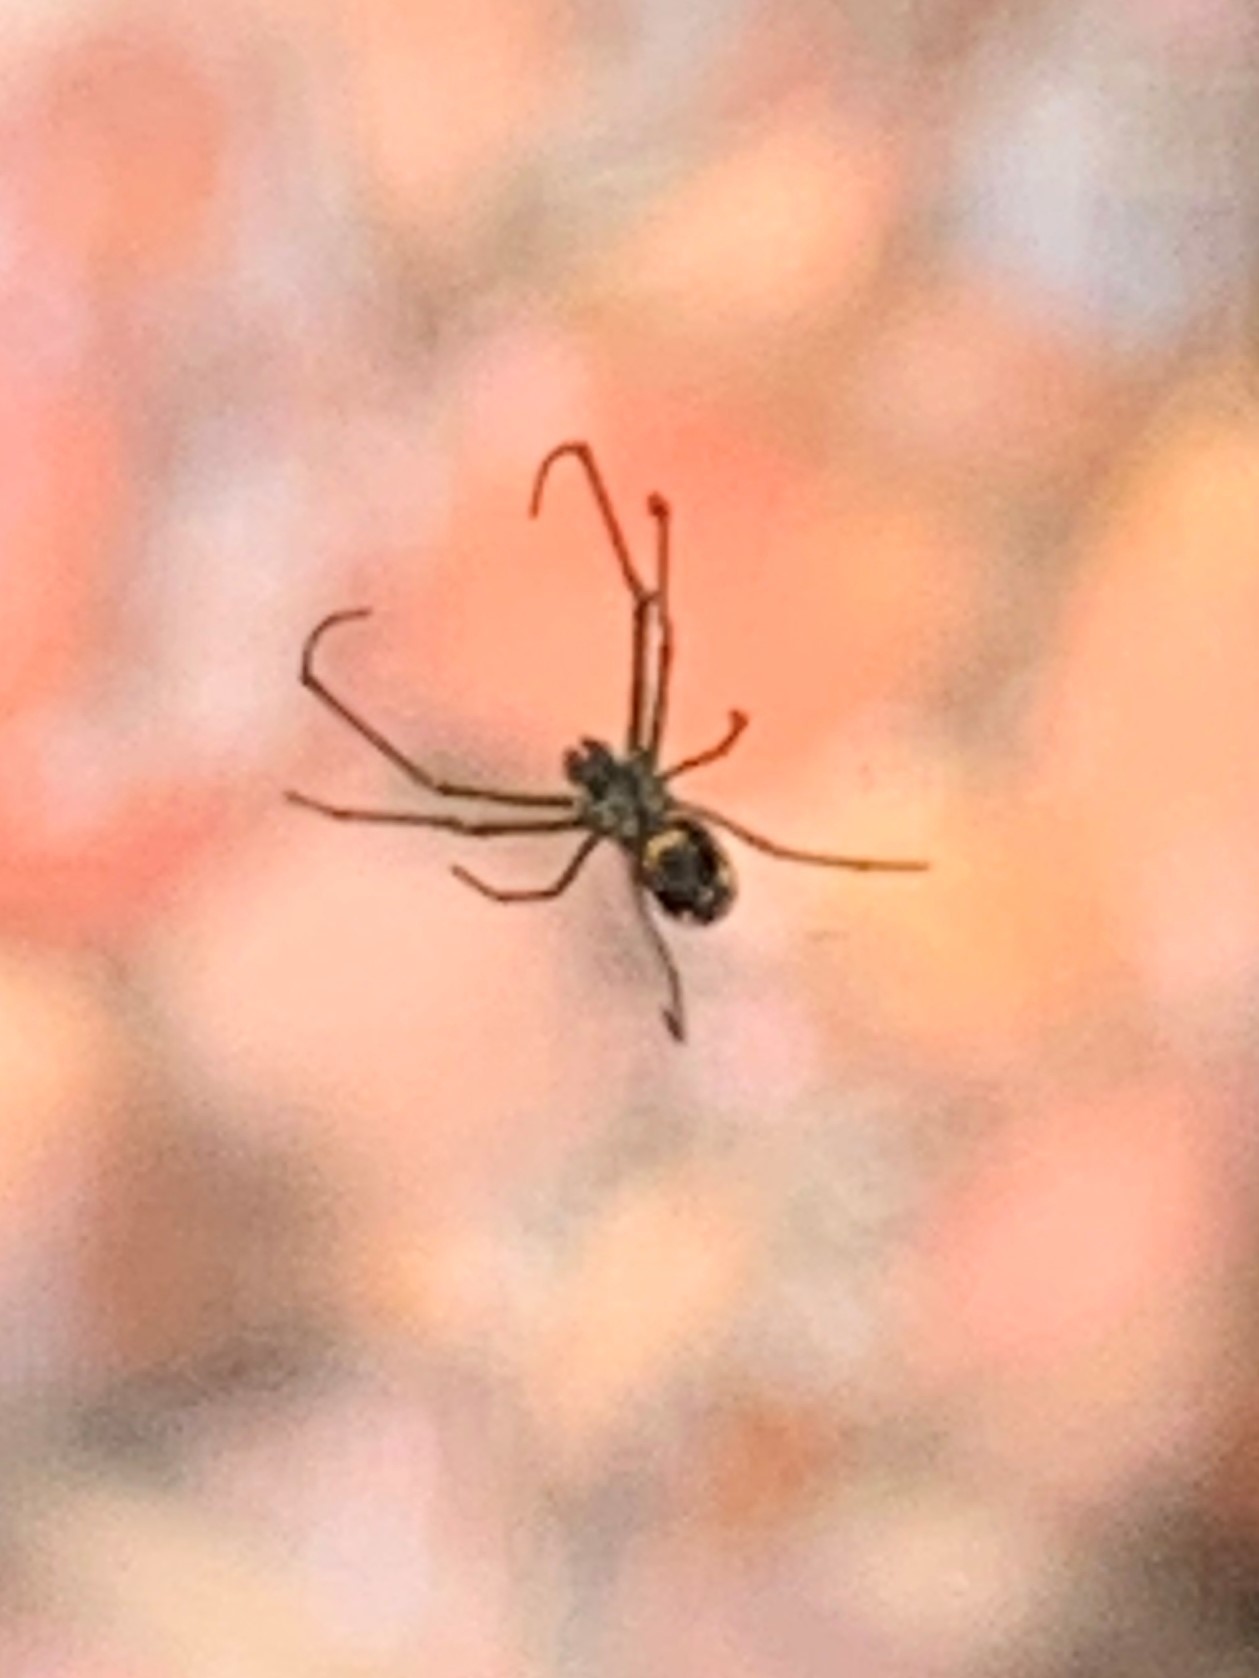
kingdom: Animalia
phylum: Arthropoda
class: Arachnida
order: Araneae
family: Tetragnathidae
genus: Leucauge
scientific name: Leucauge venusta
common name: Longjawed orb weavers
